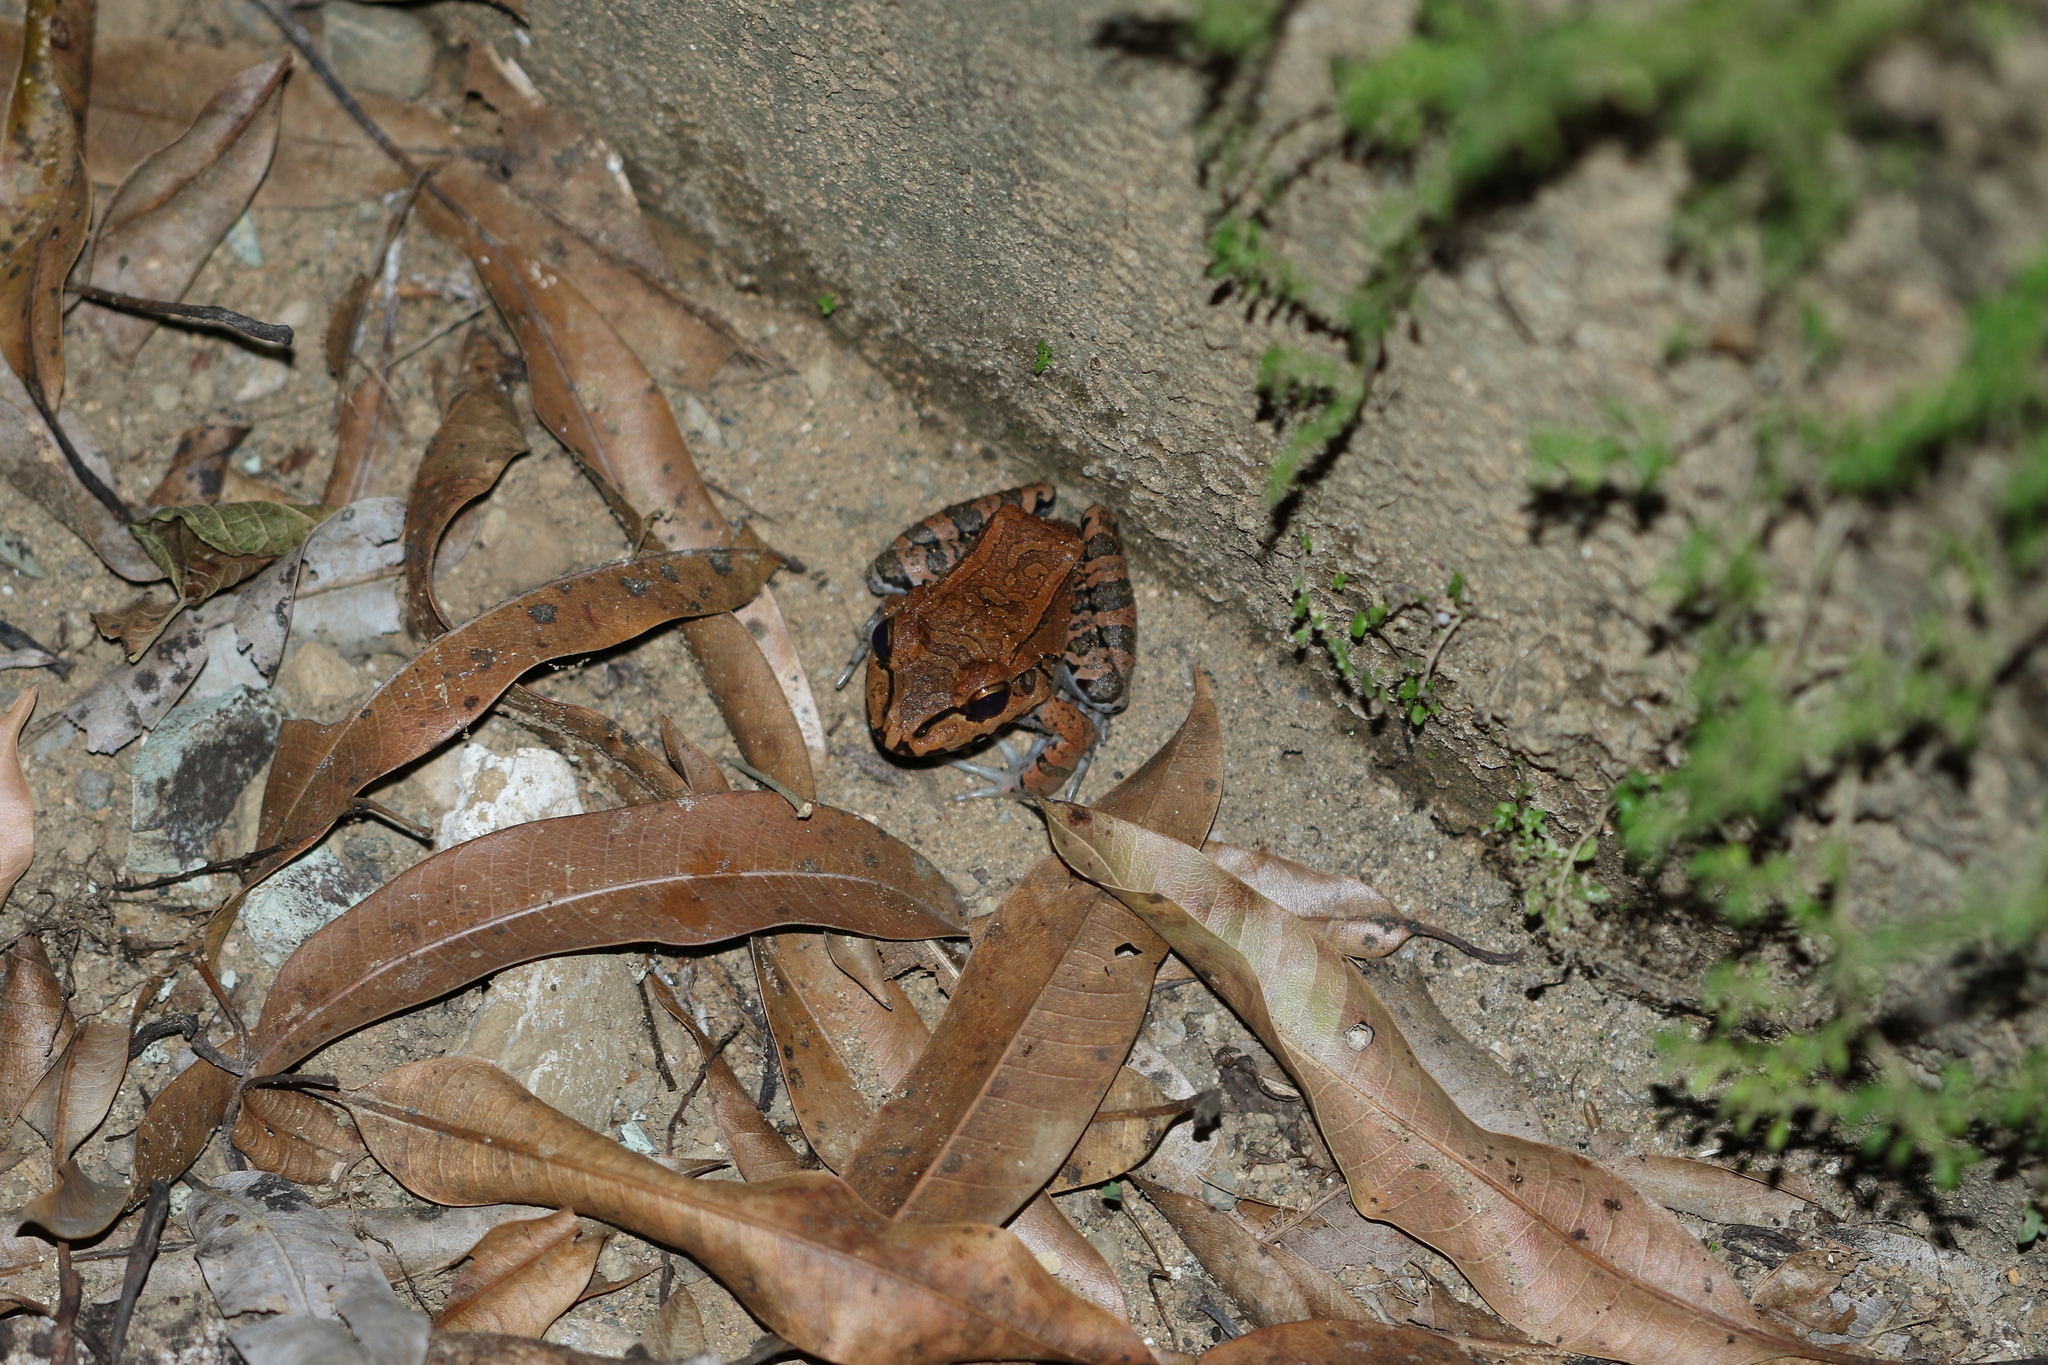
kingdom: Animalia
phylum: Chordata
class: Amphibia
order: Anura
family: Leptodactylidae
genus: Leptodactylus
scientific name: Leptodactylus savagei
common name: Savage's thin-toed frog
